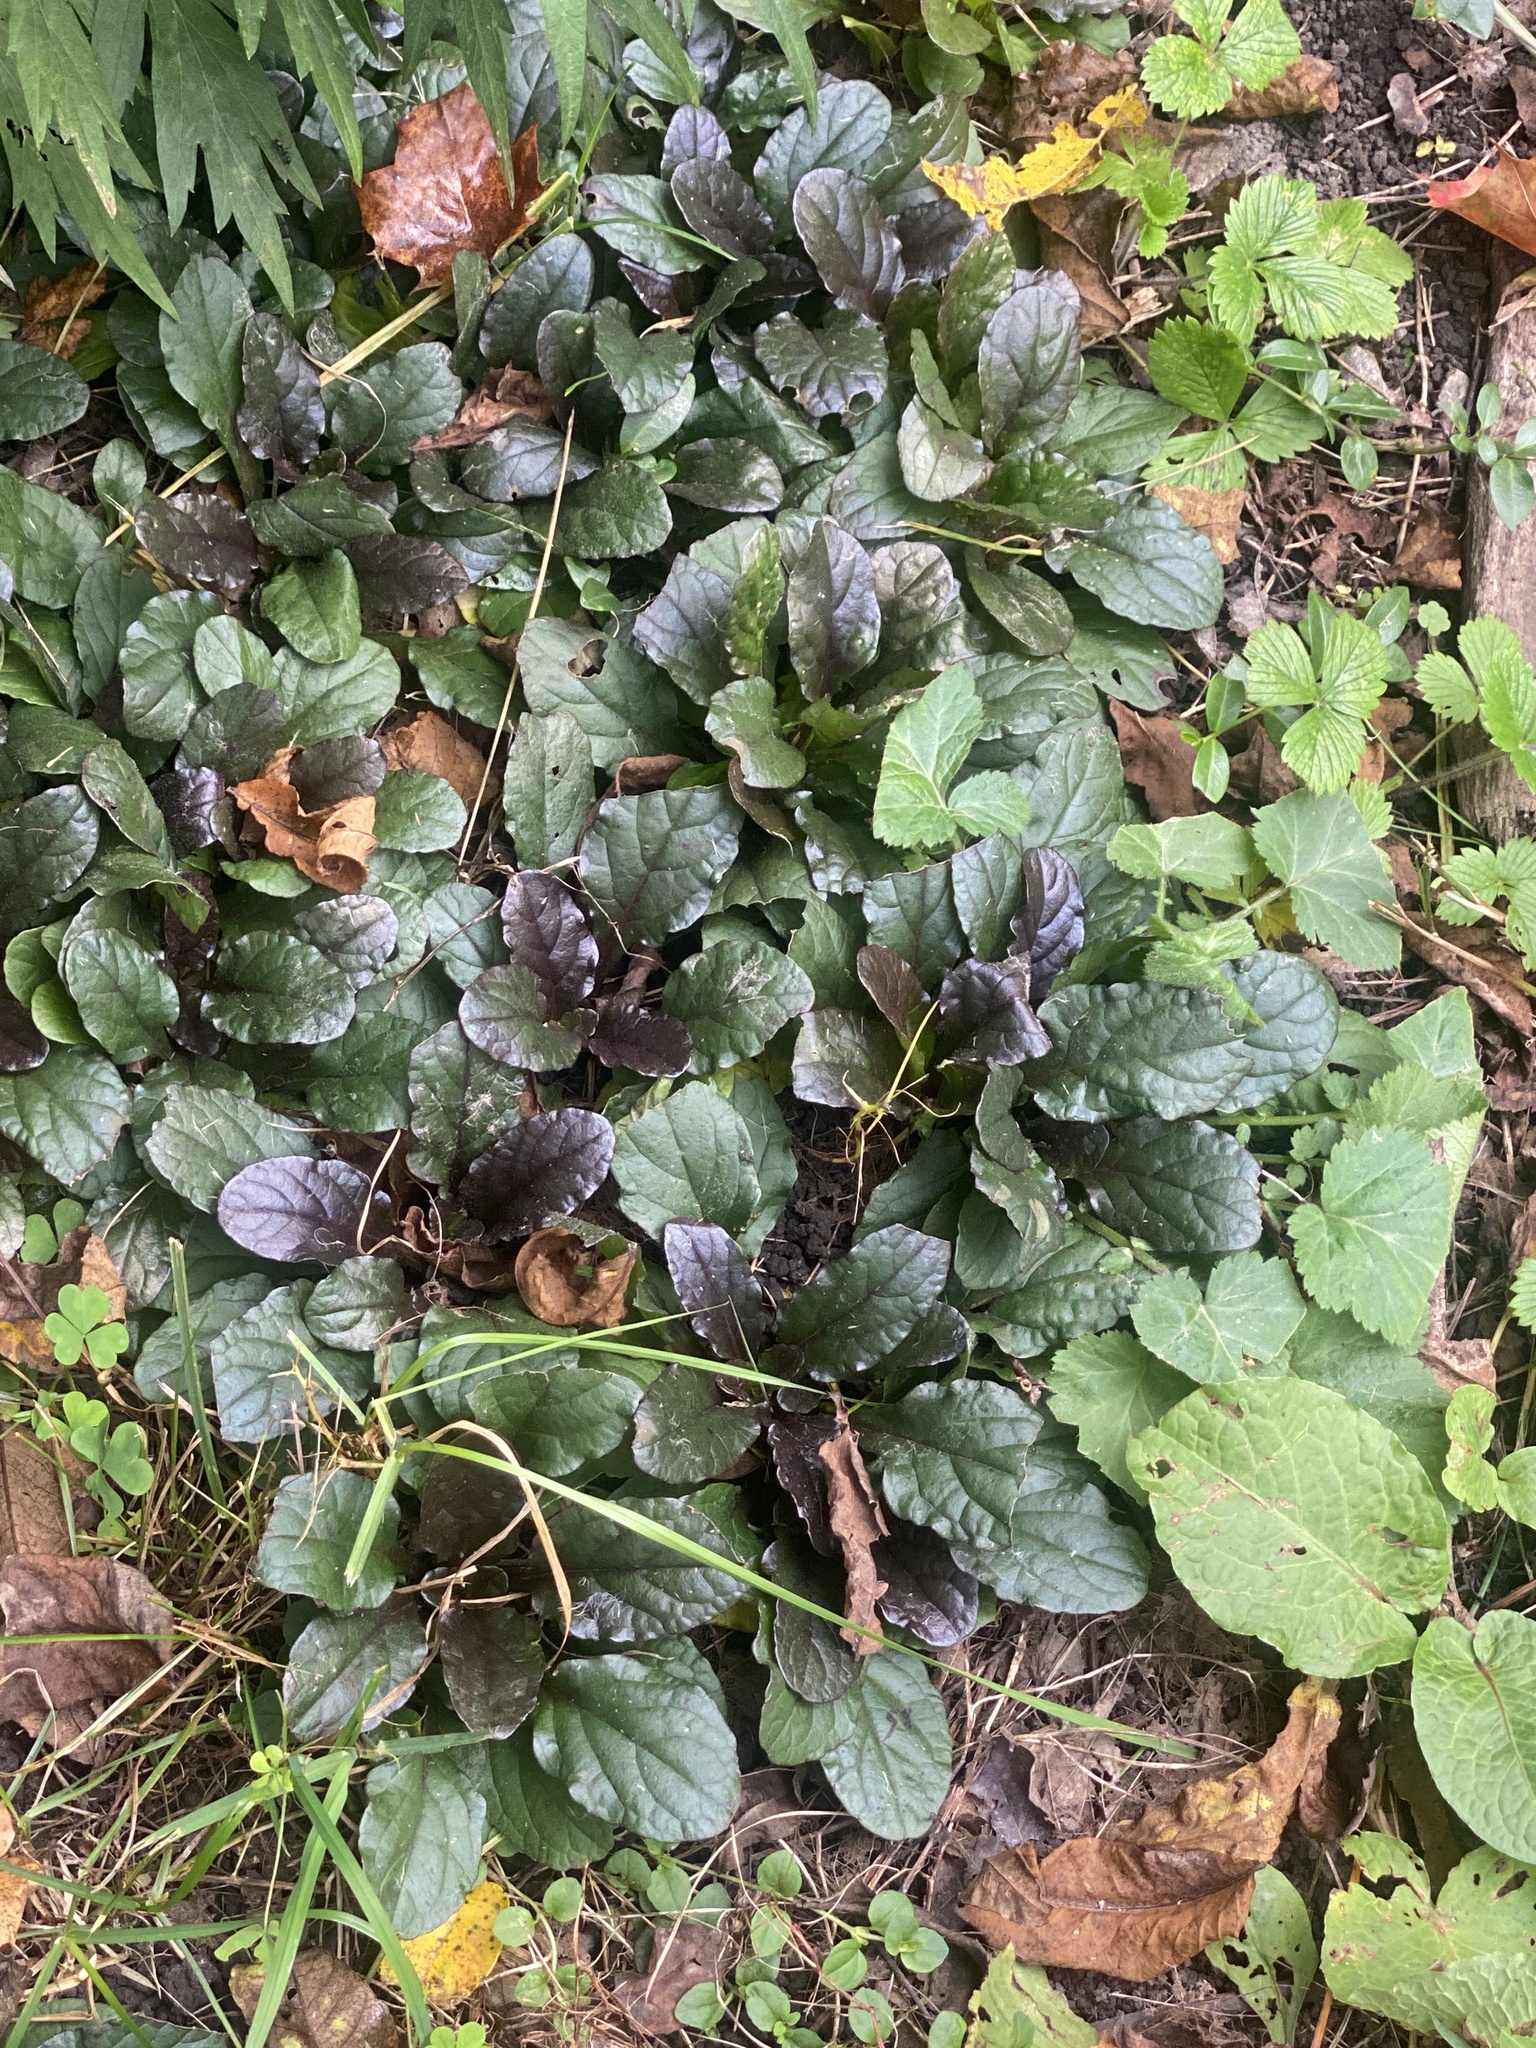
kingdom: Plantae
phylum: Tracheophyta
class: Magnoliopsida
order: Lamiales
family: Lamiaceae
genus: Ajuga
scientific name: Ajuga reptans
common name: Bugle
